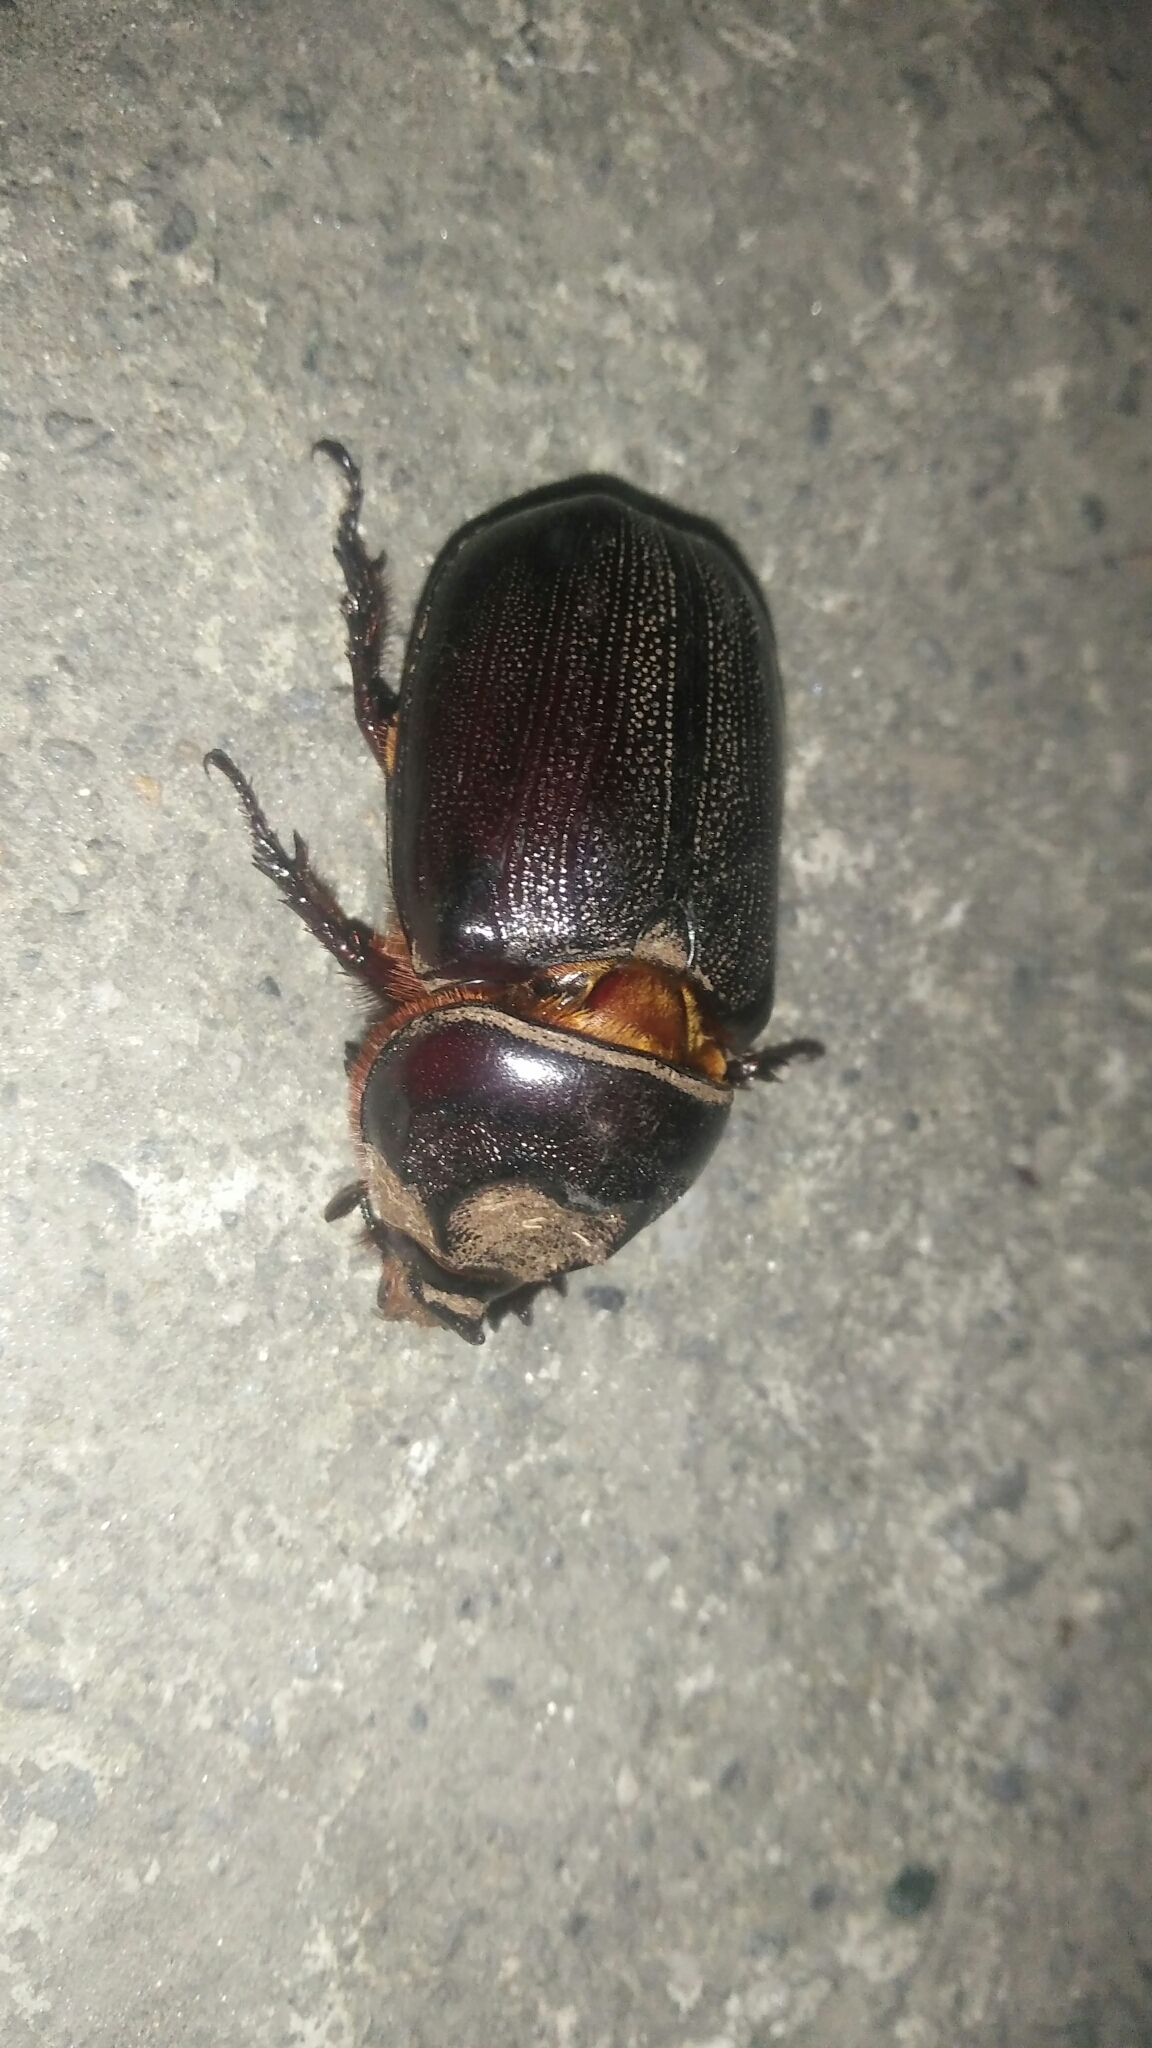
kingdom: Animalia
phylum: Arthropoda
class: Insecta
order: Coleoptera
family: Scarabaeidae
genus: Oryctes
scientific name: Oryctes rhinoceros
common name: Coconut rhinoceros beetle
